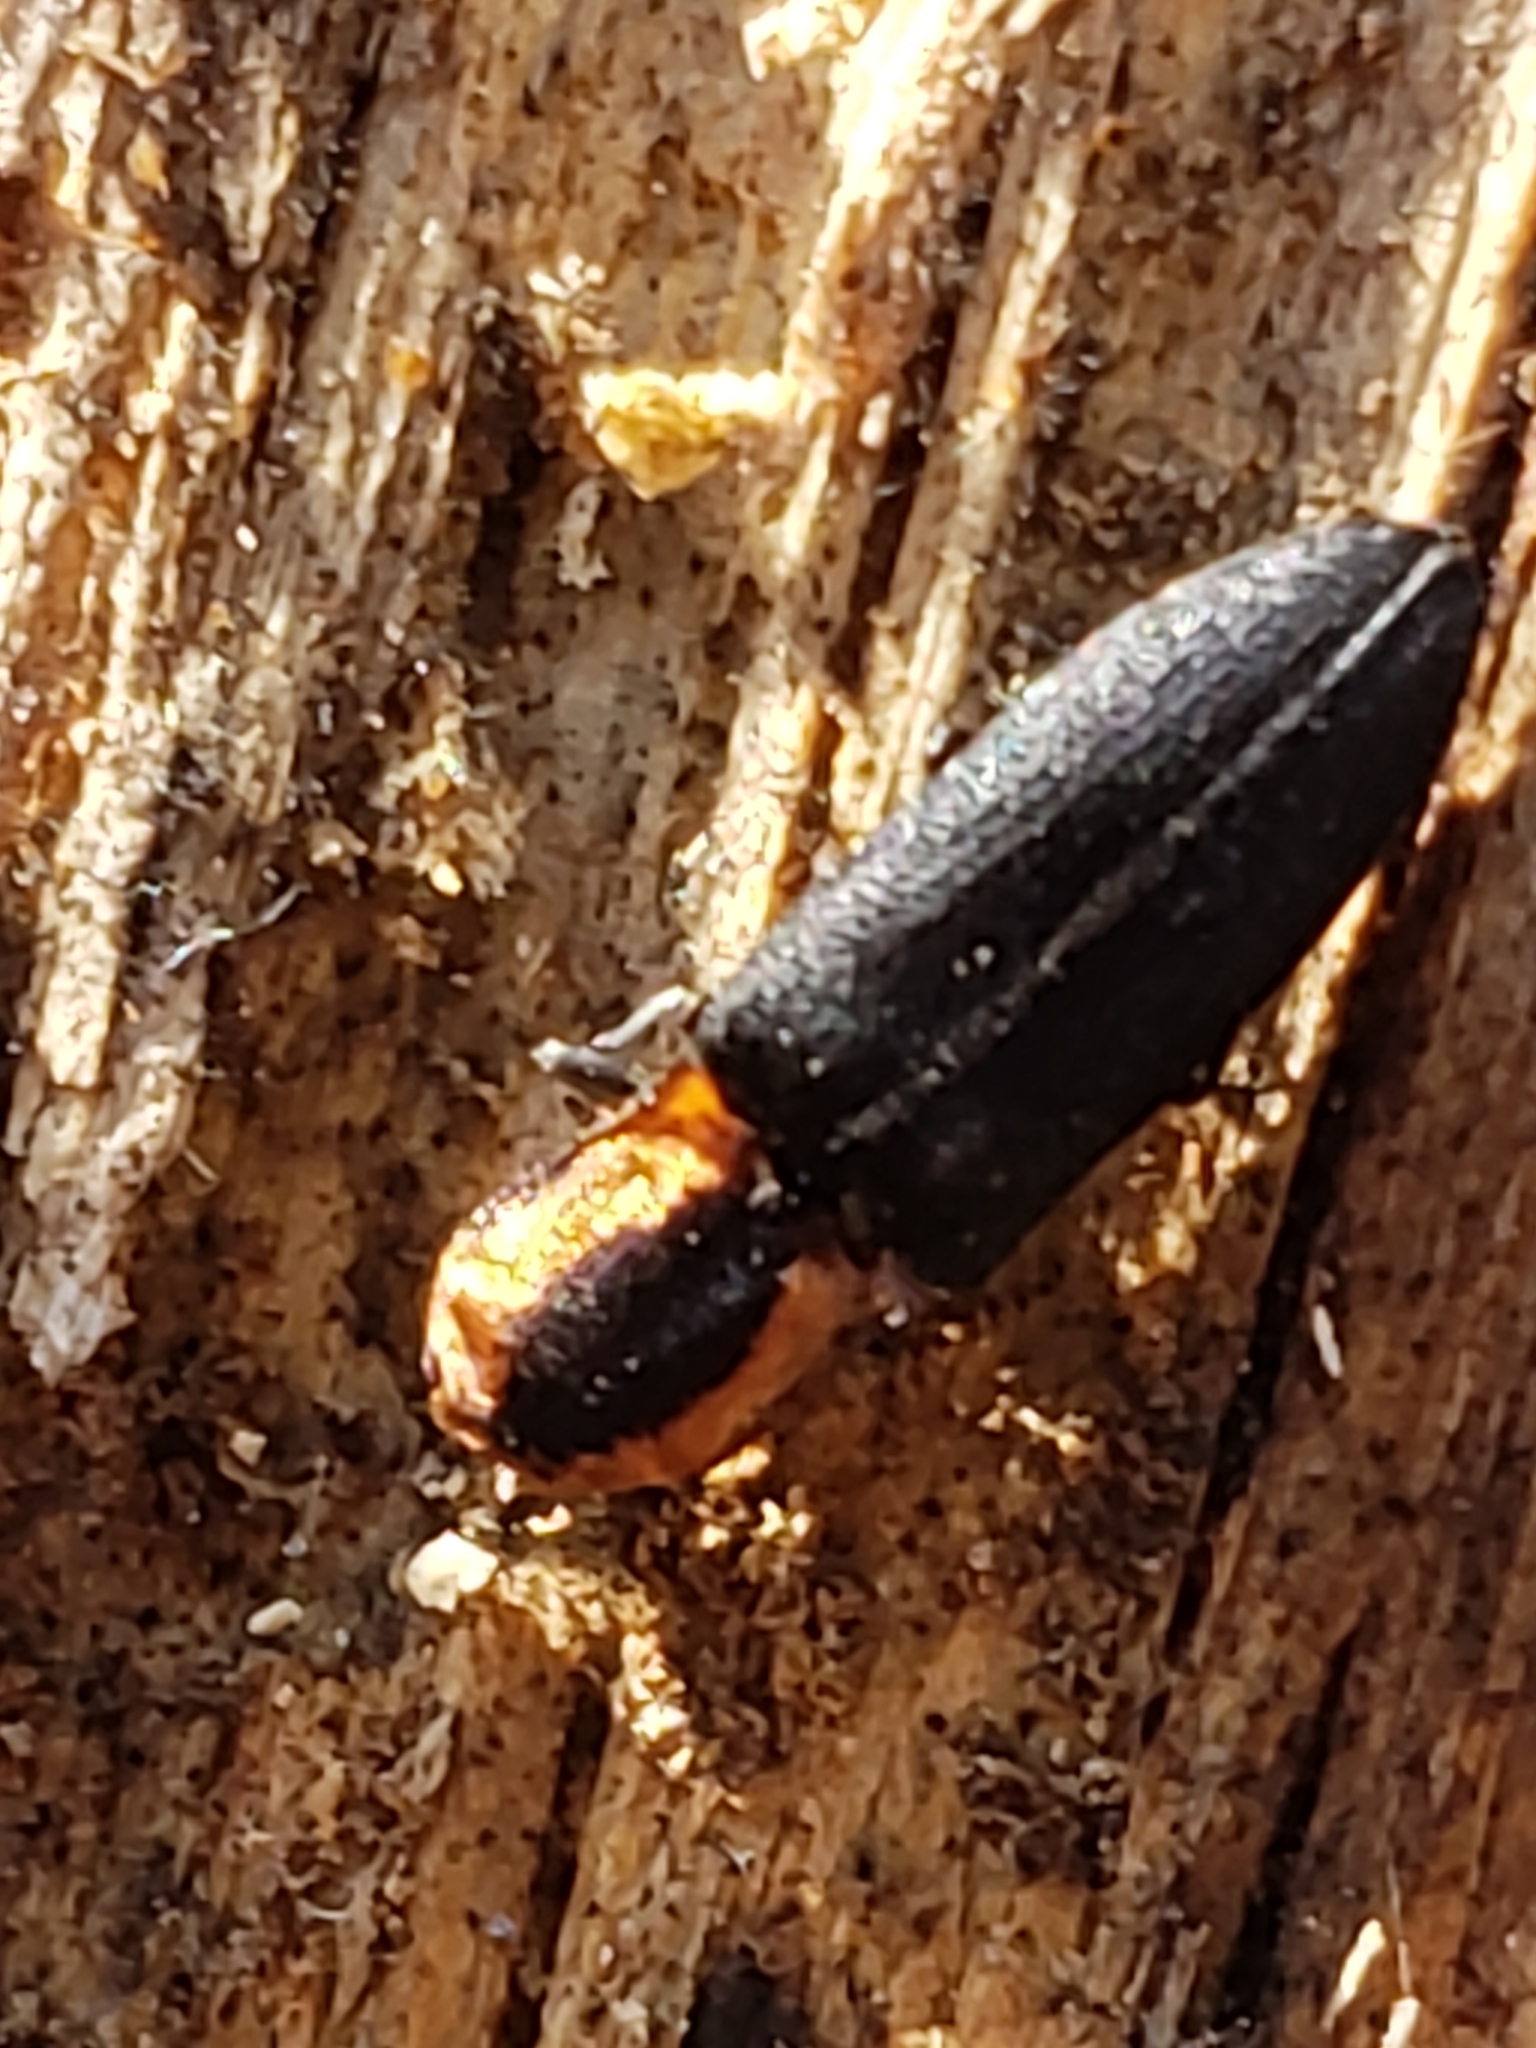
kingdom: Animalia
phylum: Arthropoda
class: Insecta
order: Coleoptera
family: Elateridae
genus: Lacon
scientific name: Lacon discoideus
